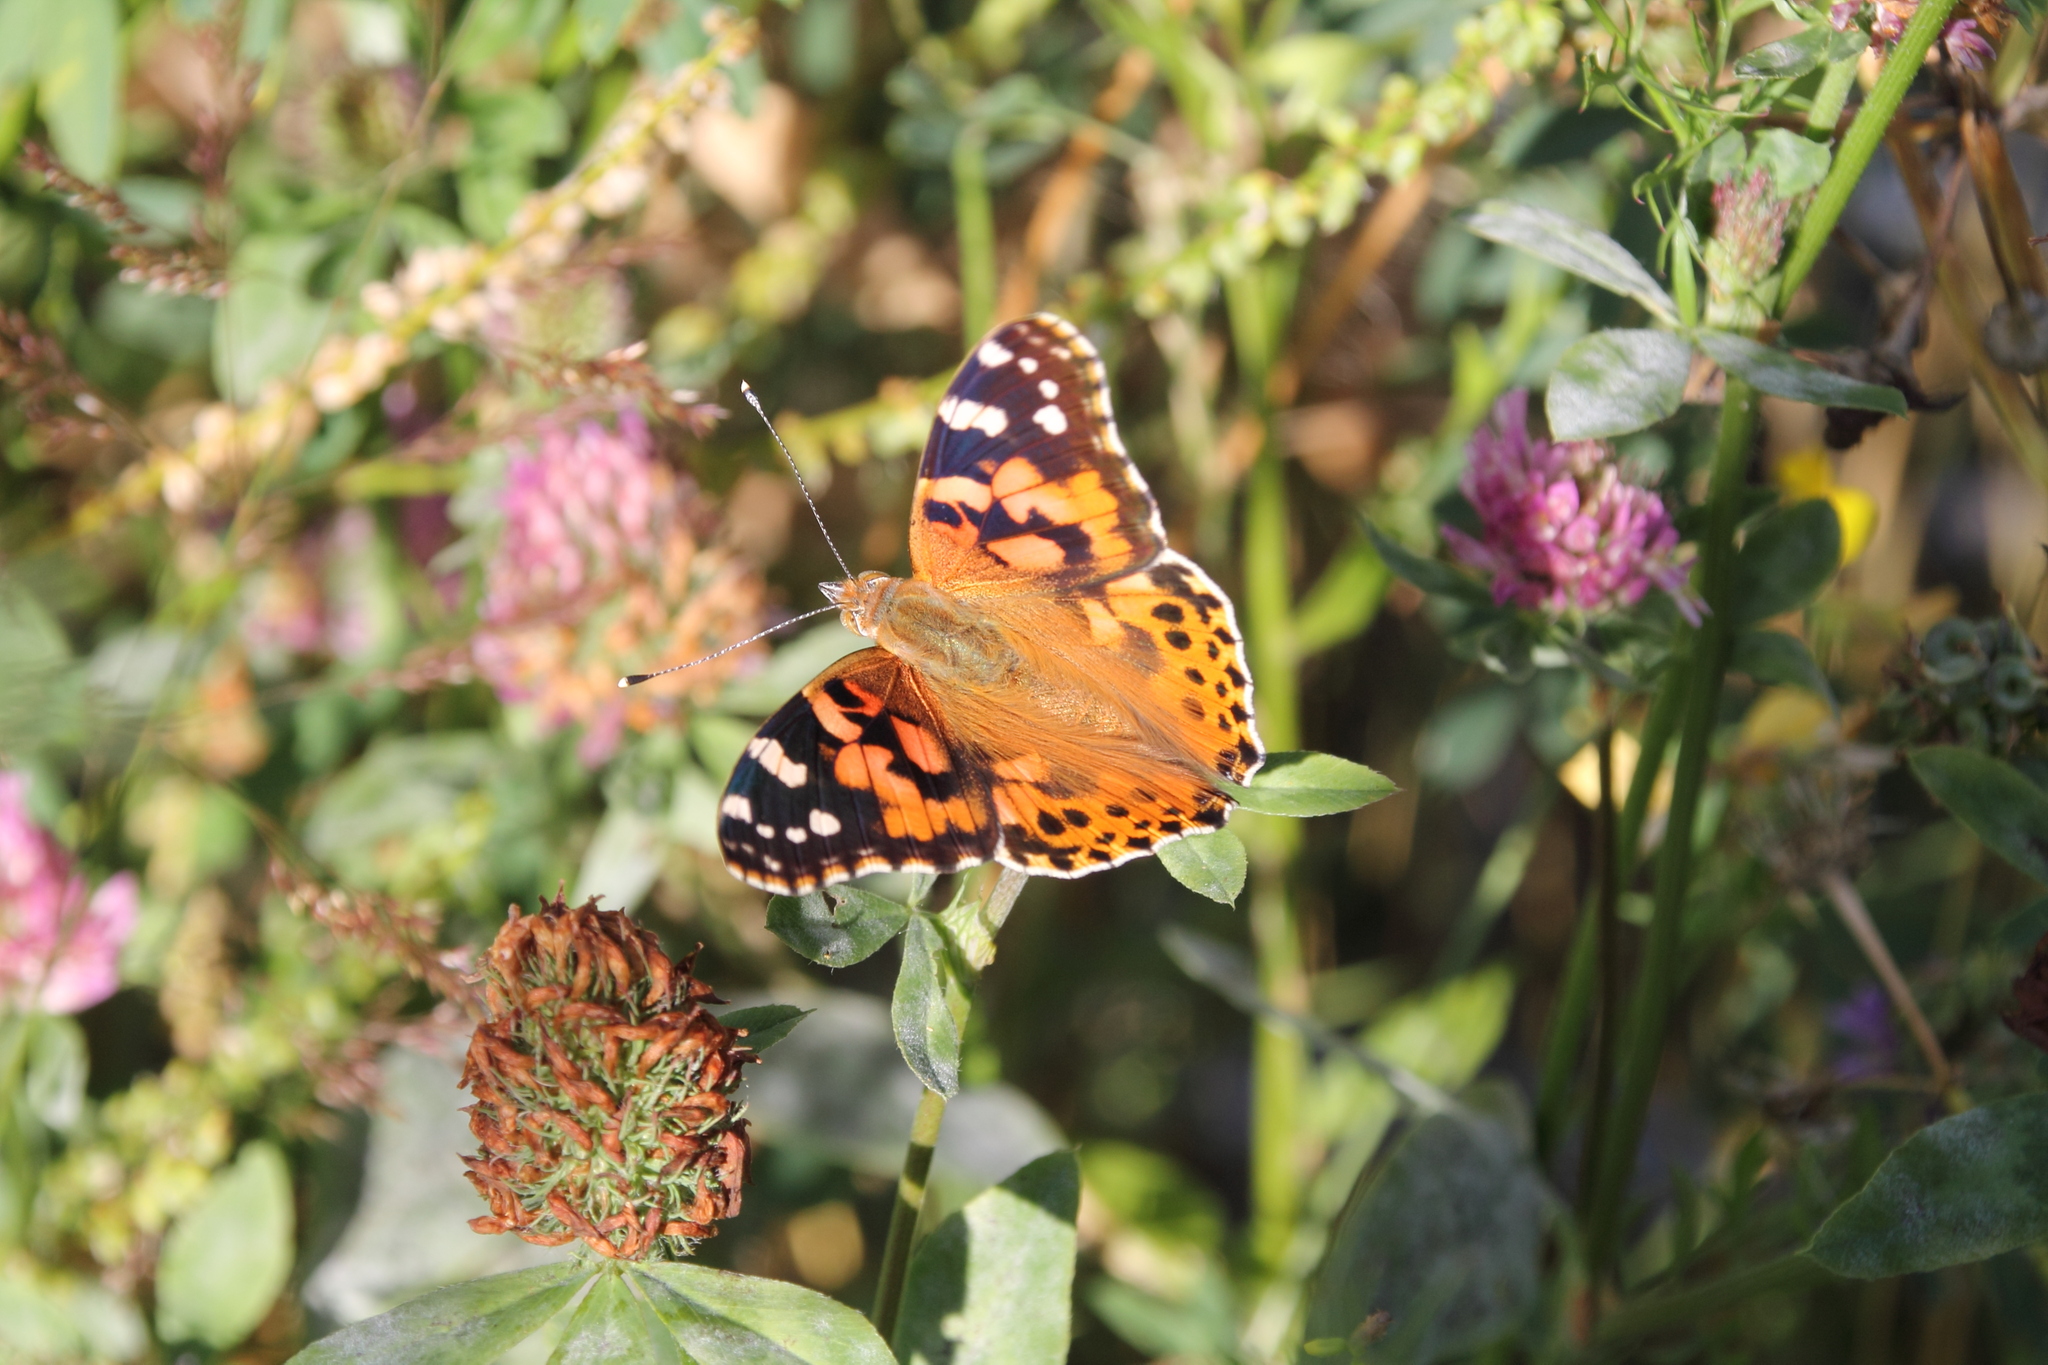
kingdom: Animalia
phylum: Arthropoda
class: Insecta
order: Lepidoptera
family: Nymphalidae
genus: Vanessa
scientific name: Vanessa cardui
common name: Painted lady
